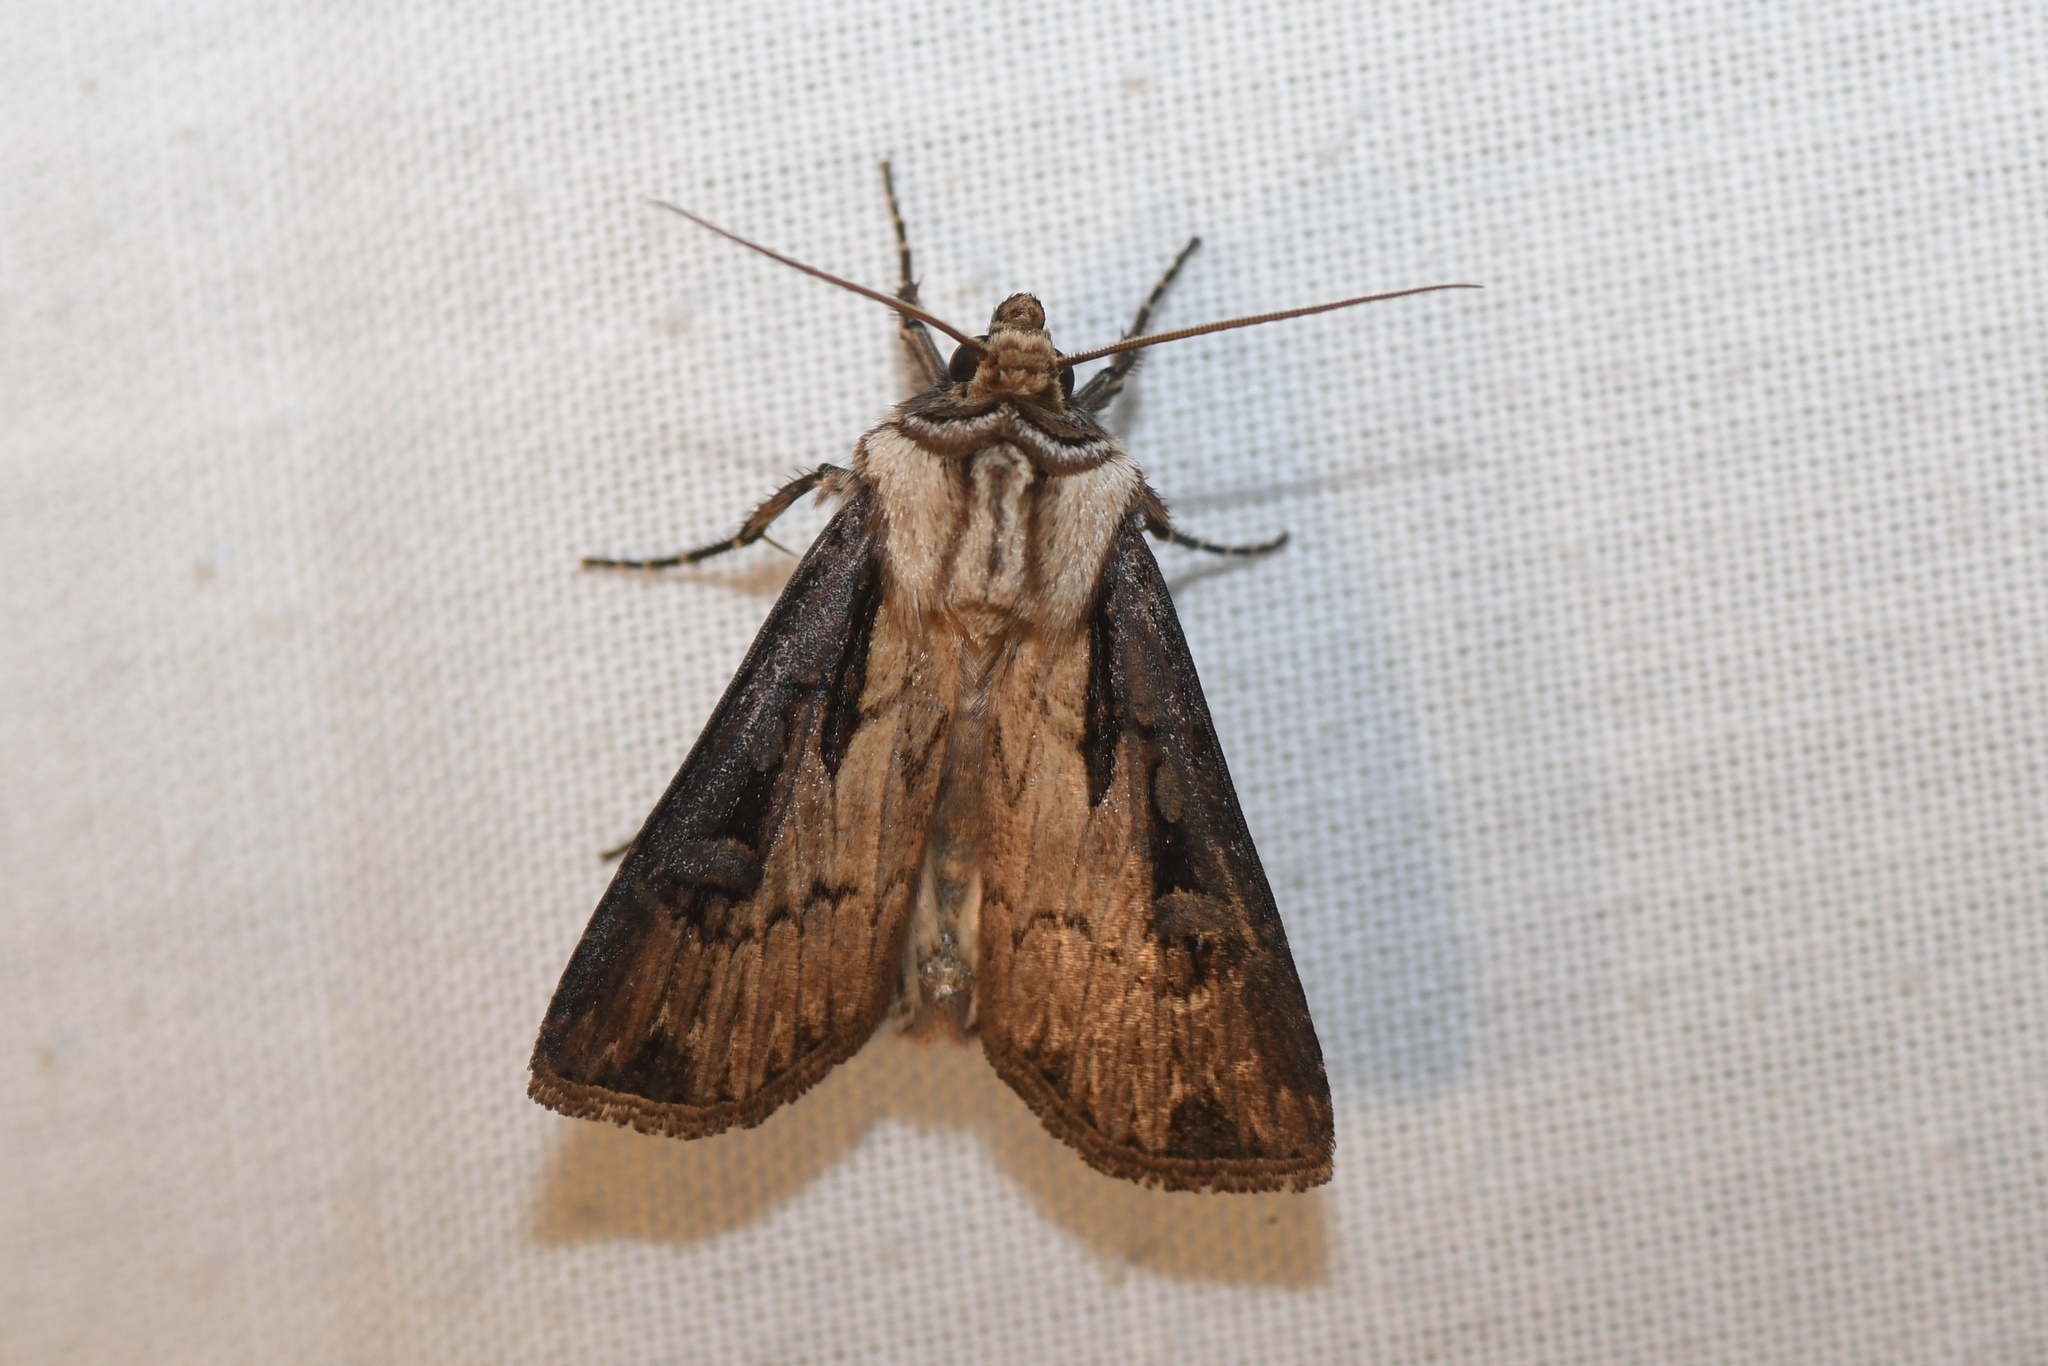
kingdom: Animalia
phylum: Arthropoda
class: Insecta
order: Lepidoptera
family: Noctuidae
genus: Agrotis
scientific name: Agrotis obliqua
